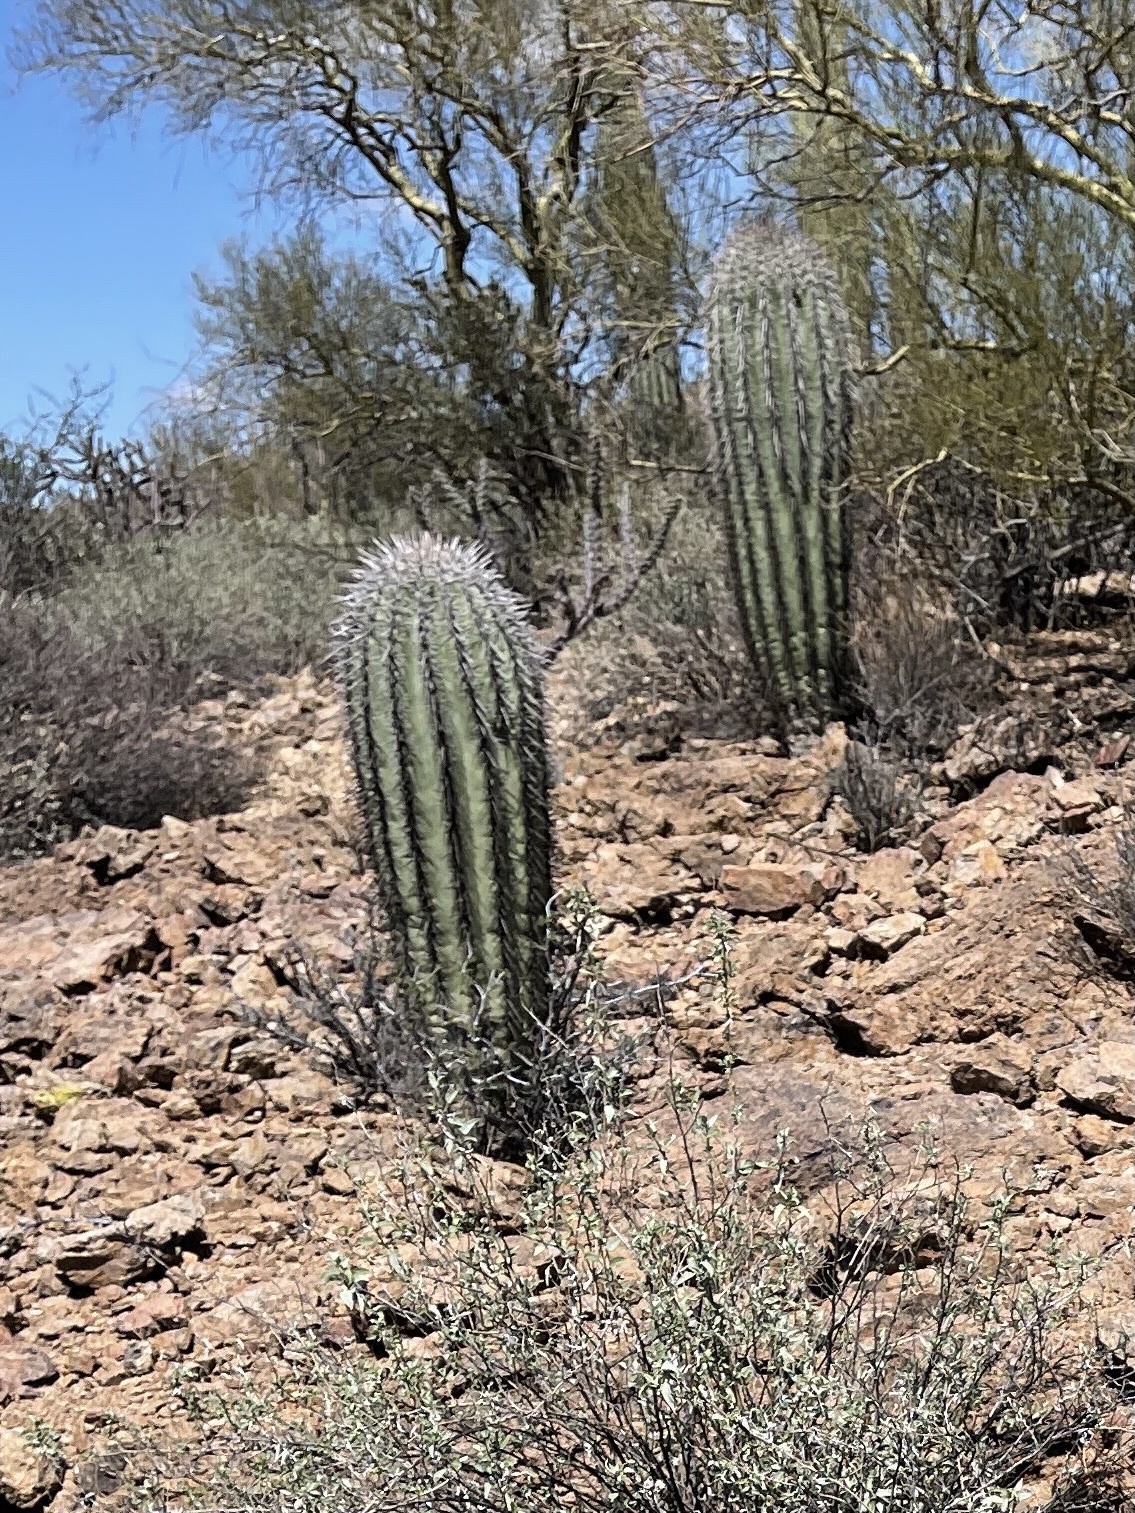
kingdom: Plantae
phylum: Tracheophyta
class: Magnoliopsida
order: Caryophyllales
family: Cactaceae
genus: Carnegiea
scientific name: Carnegiea gigantea
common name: Saguaro
